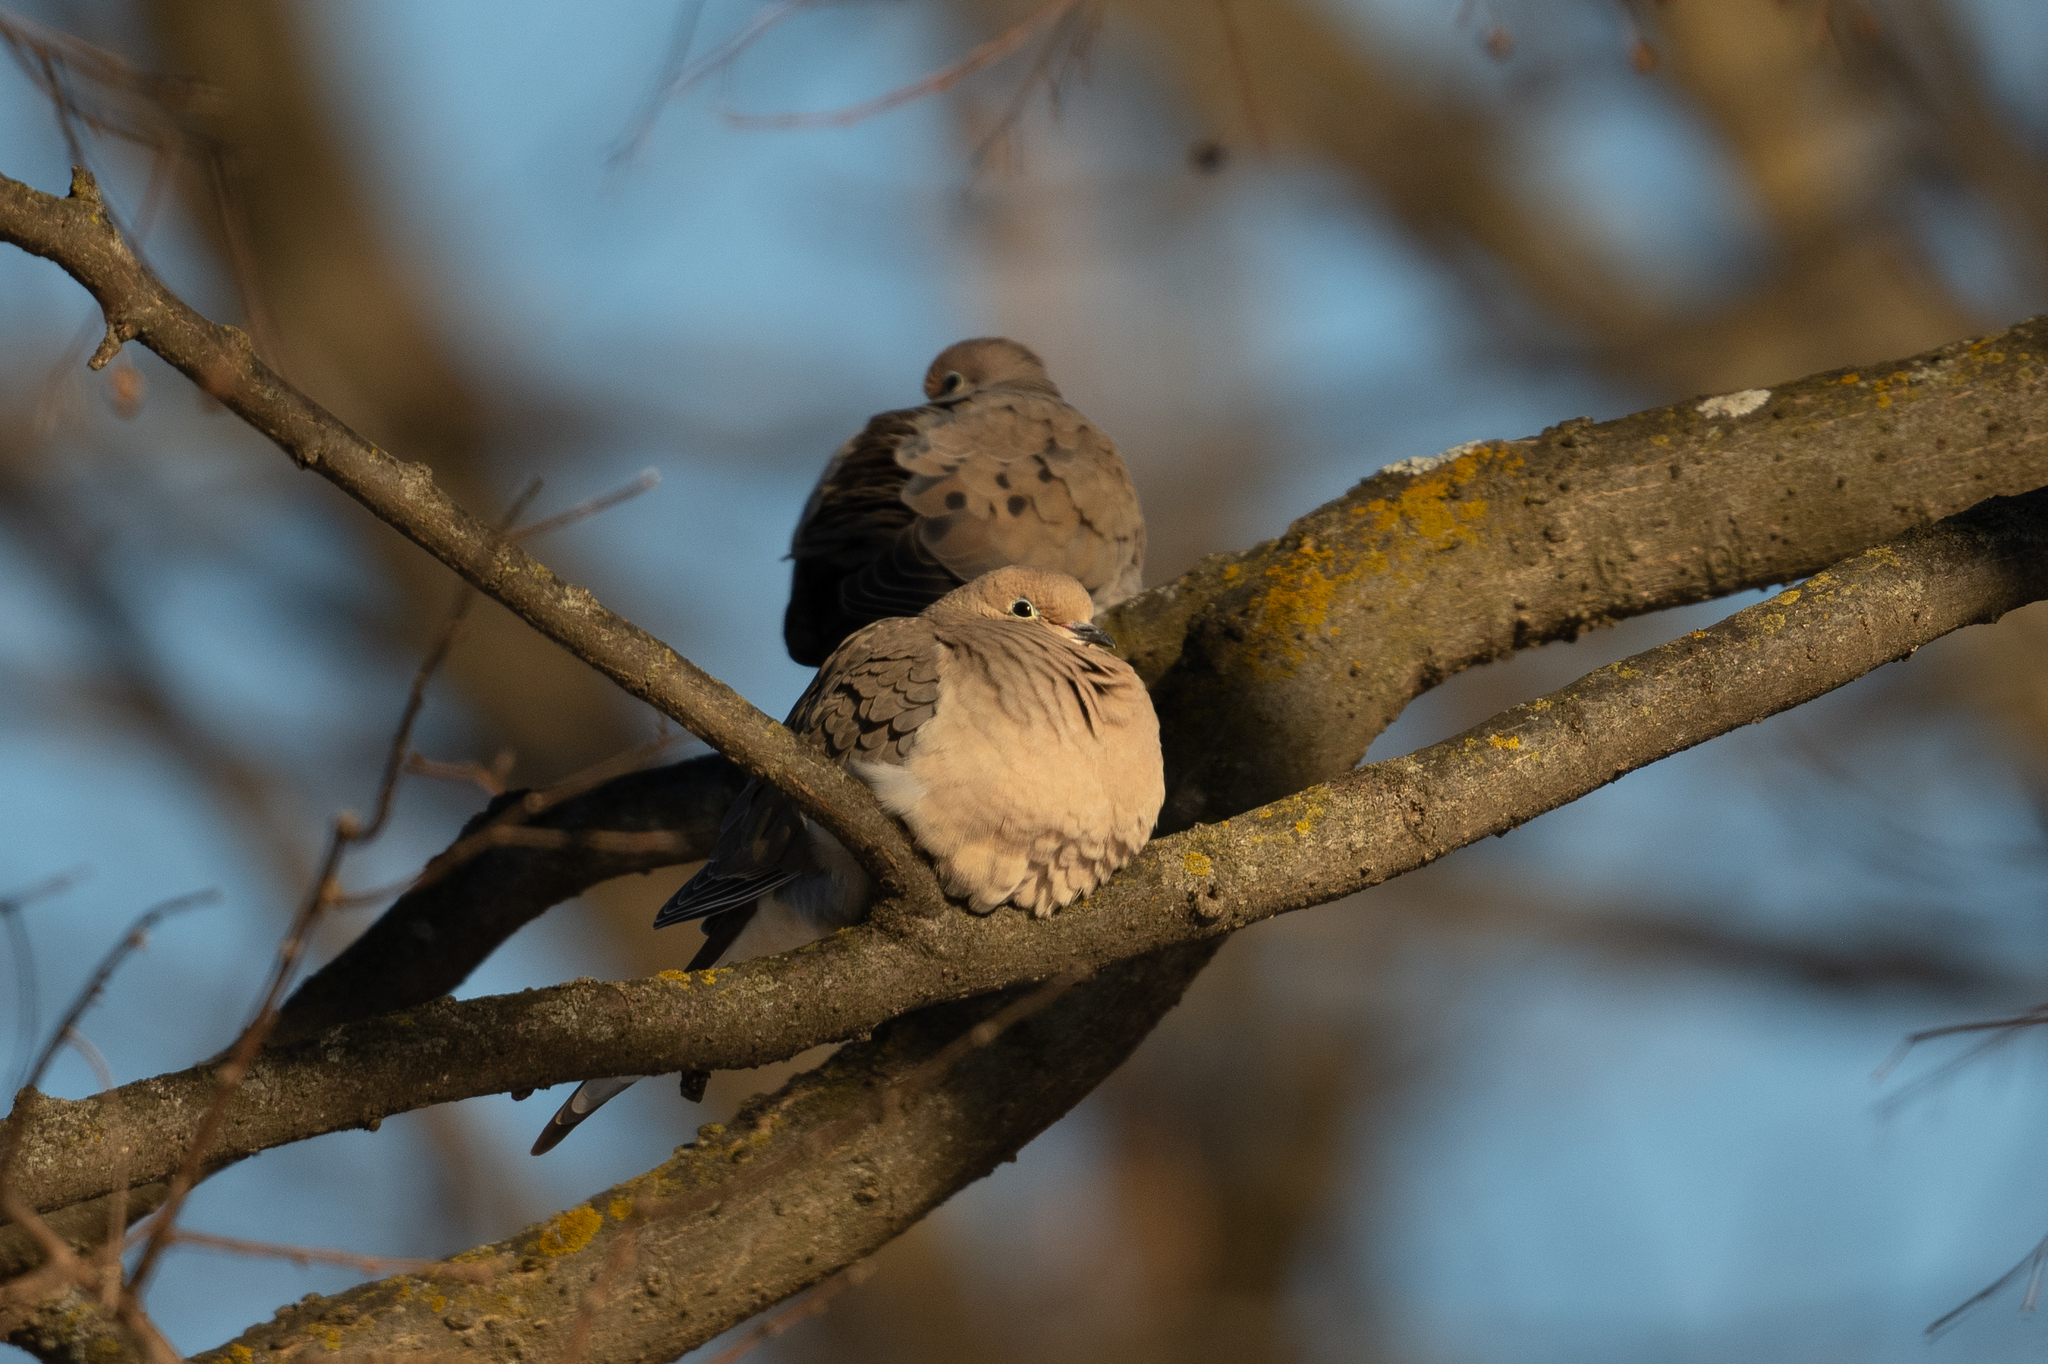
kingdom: Animalia
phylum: Chordata
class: Aves
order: Columbiformes
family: Columbidae
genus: Zenaida
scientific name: Zenaida macroura
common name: Mourning dove
